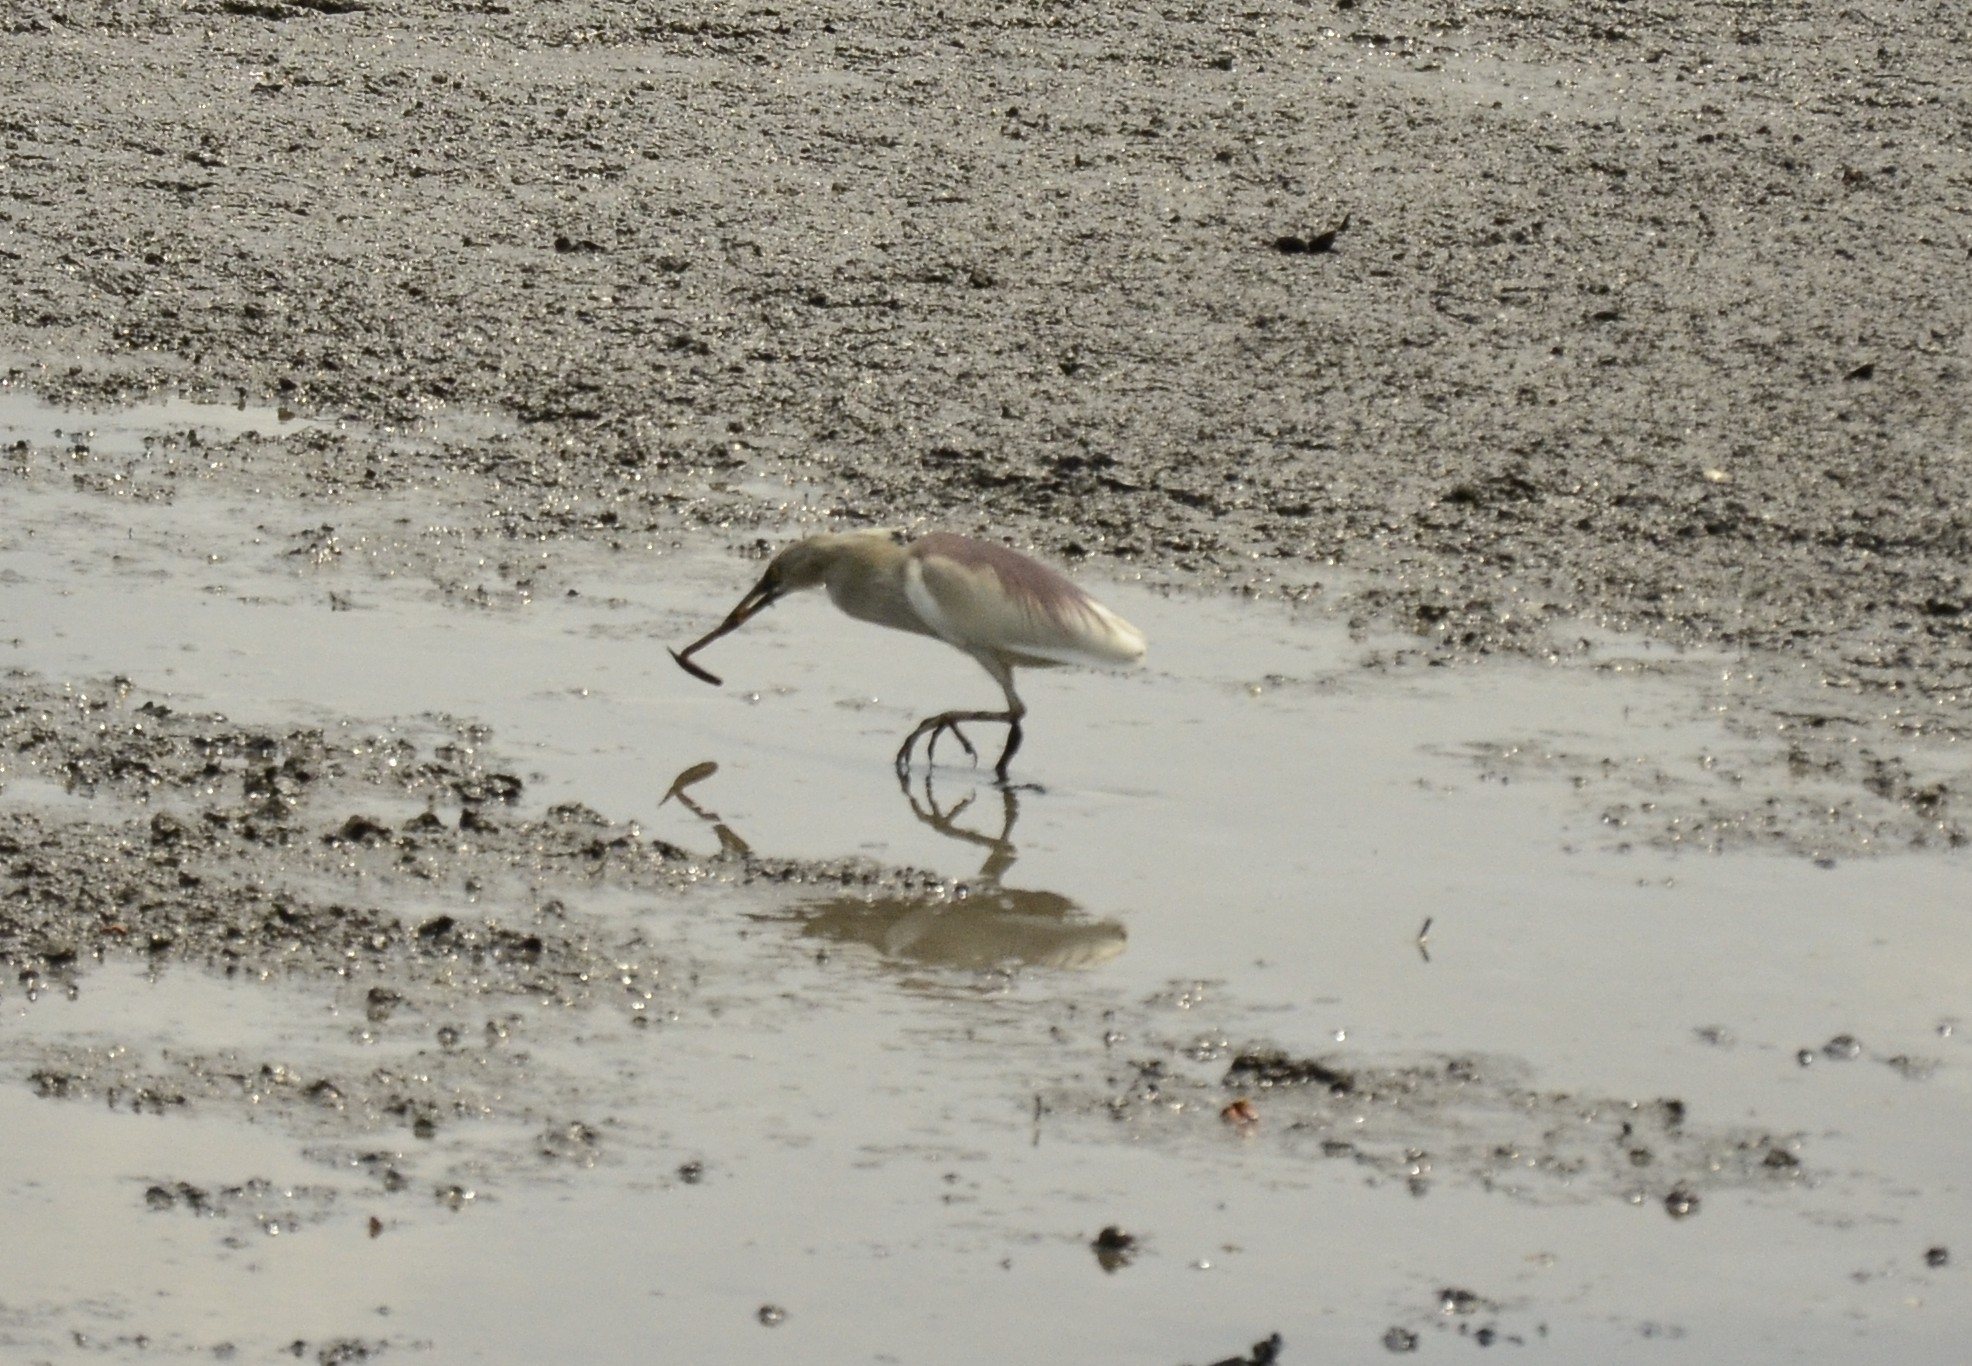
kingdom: Animalia
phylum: Chordata
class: Aves
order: Pelecaniformes
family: Ardeidae
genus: Ardeola
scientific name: Ardeola grayii
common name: Indian pond heron
